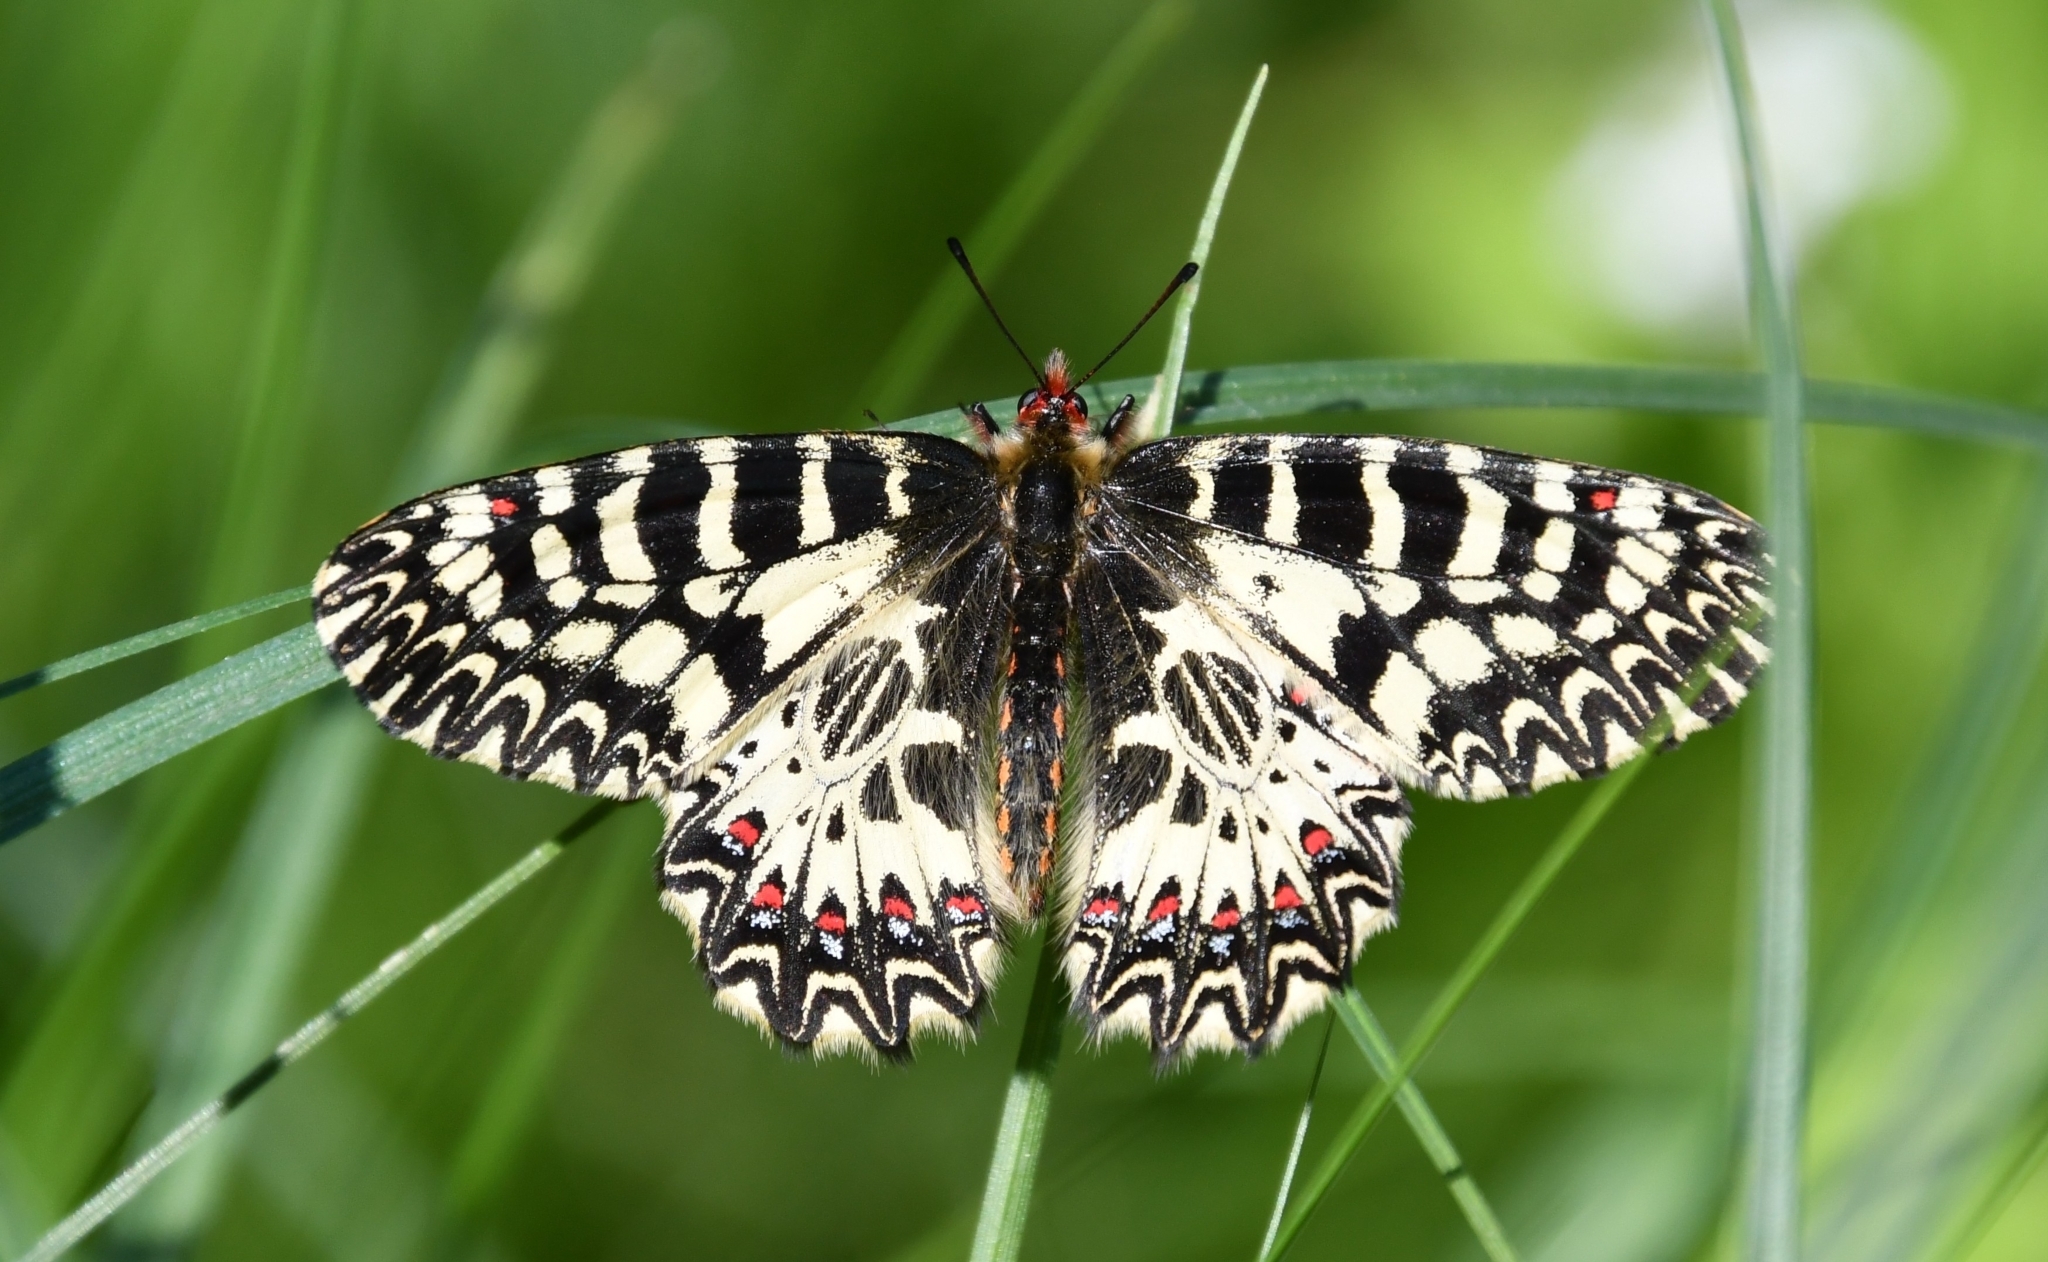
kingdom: Animalia
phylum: Arthropoda
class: Insecta
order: Lepidoptera
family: Papilionidae
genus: Zerynthia
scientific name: Zerynthia polyxena
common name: Southern festoon
